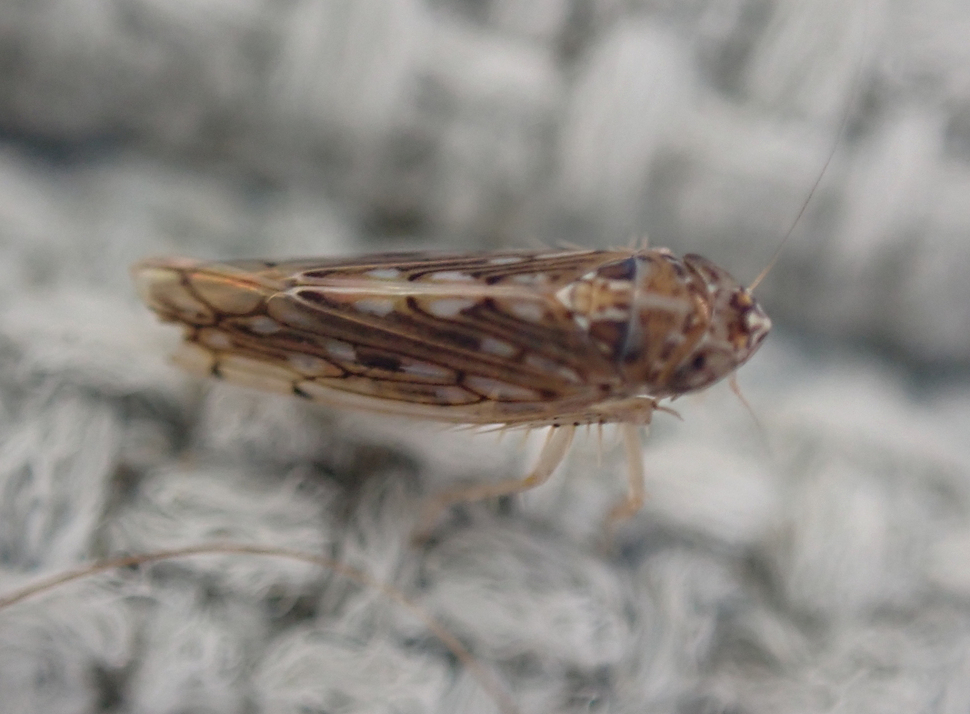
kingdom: Animalia
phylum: Arthropoda
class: Insecta
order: Hemiptera
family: Cicadellidae
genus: Osbornellus
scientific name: Osbornellus clarus
